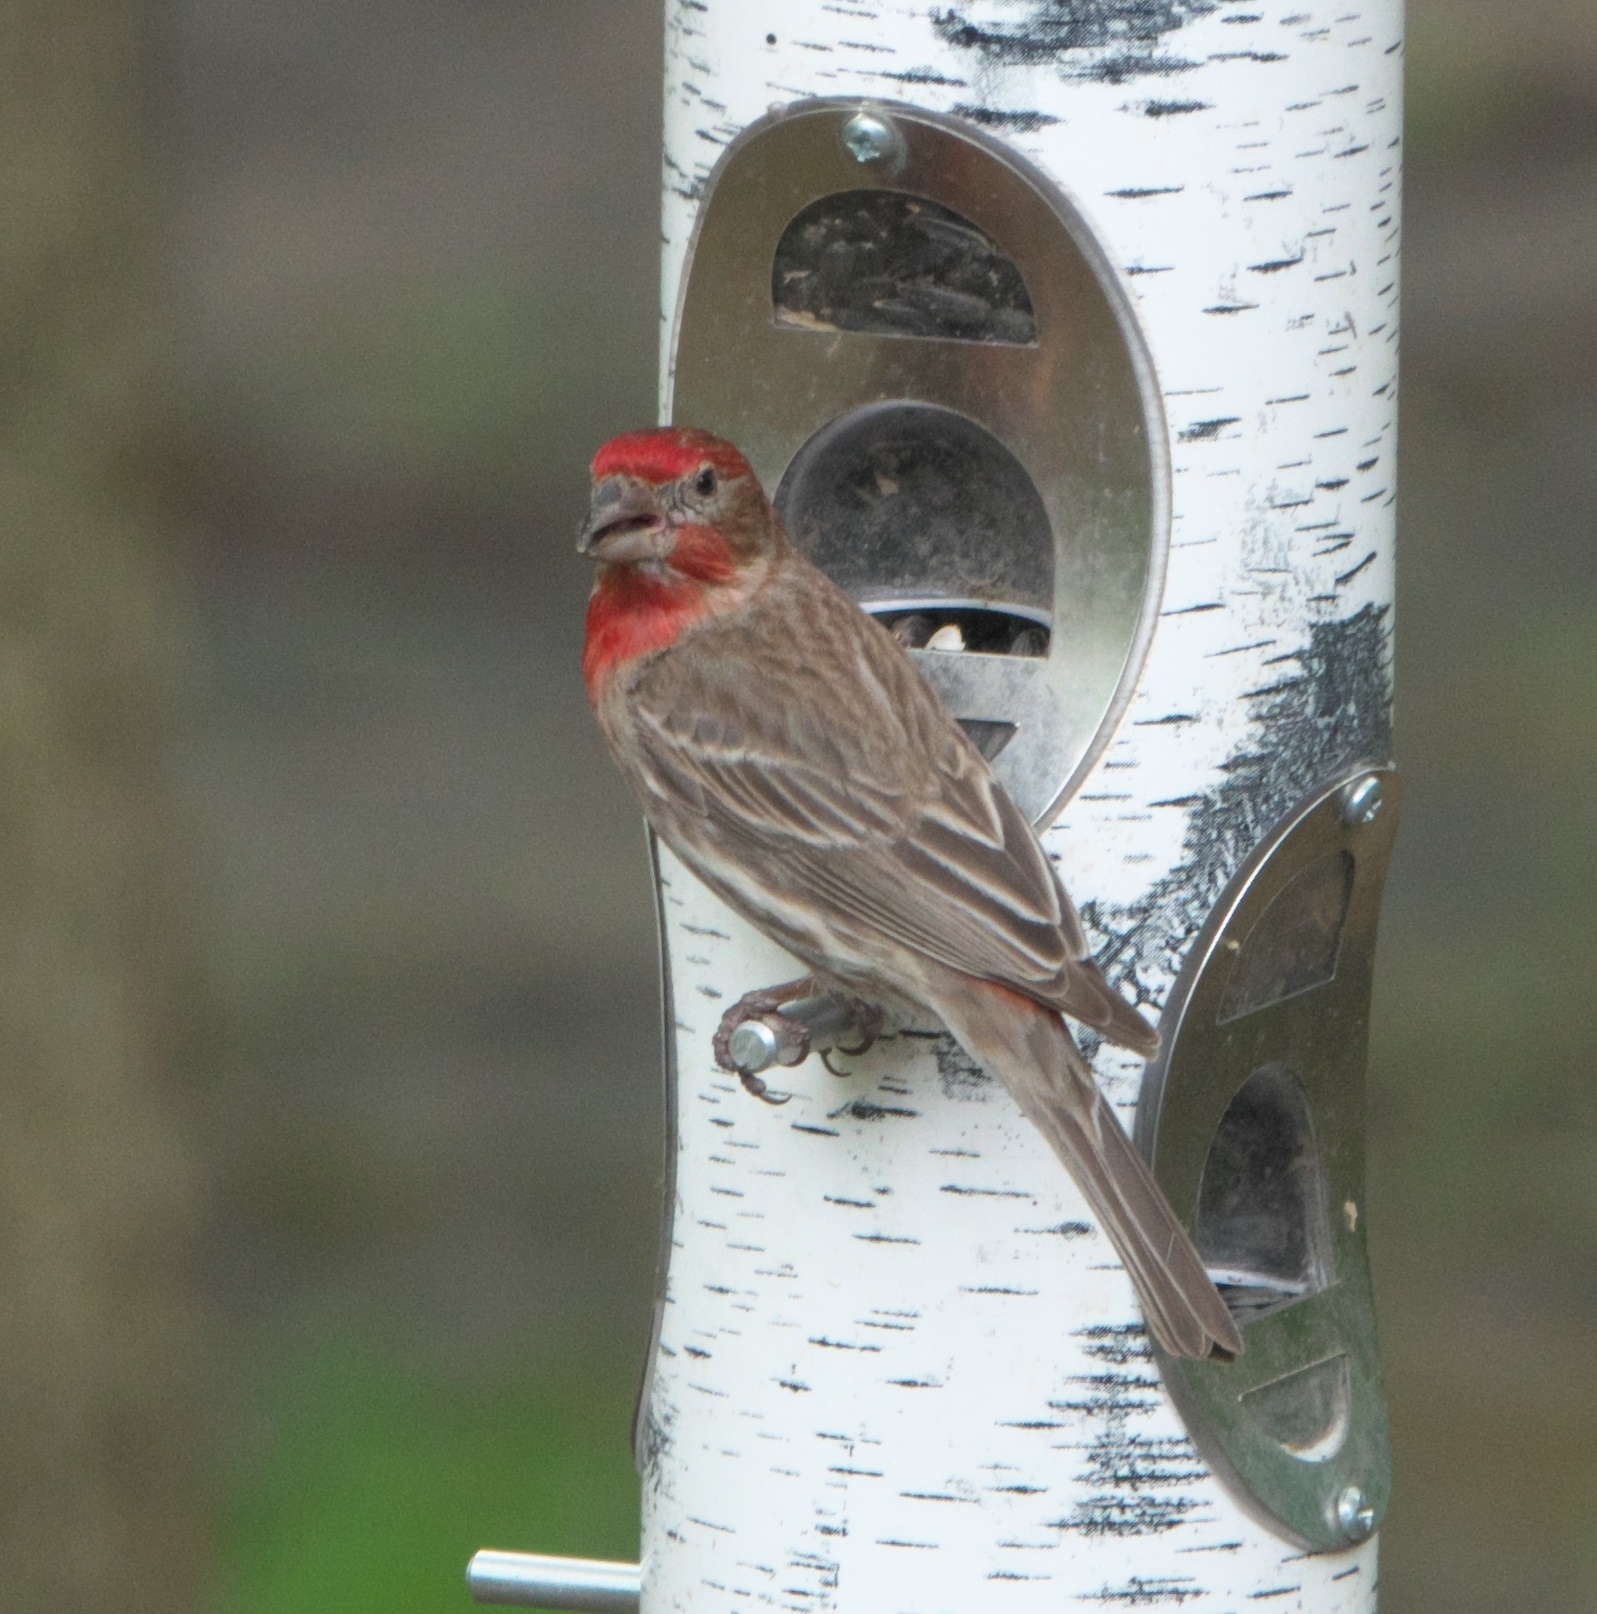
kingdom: Animalia
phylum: Chordata
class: Aves
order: Passeriformes
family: Fringillidae
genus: Haemorhous
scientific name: Haemorhous mexicanus
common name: House finch
